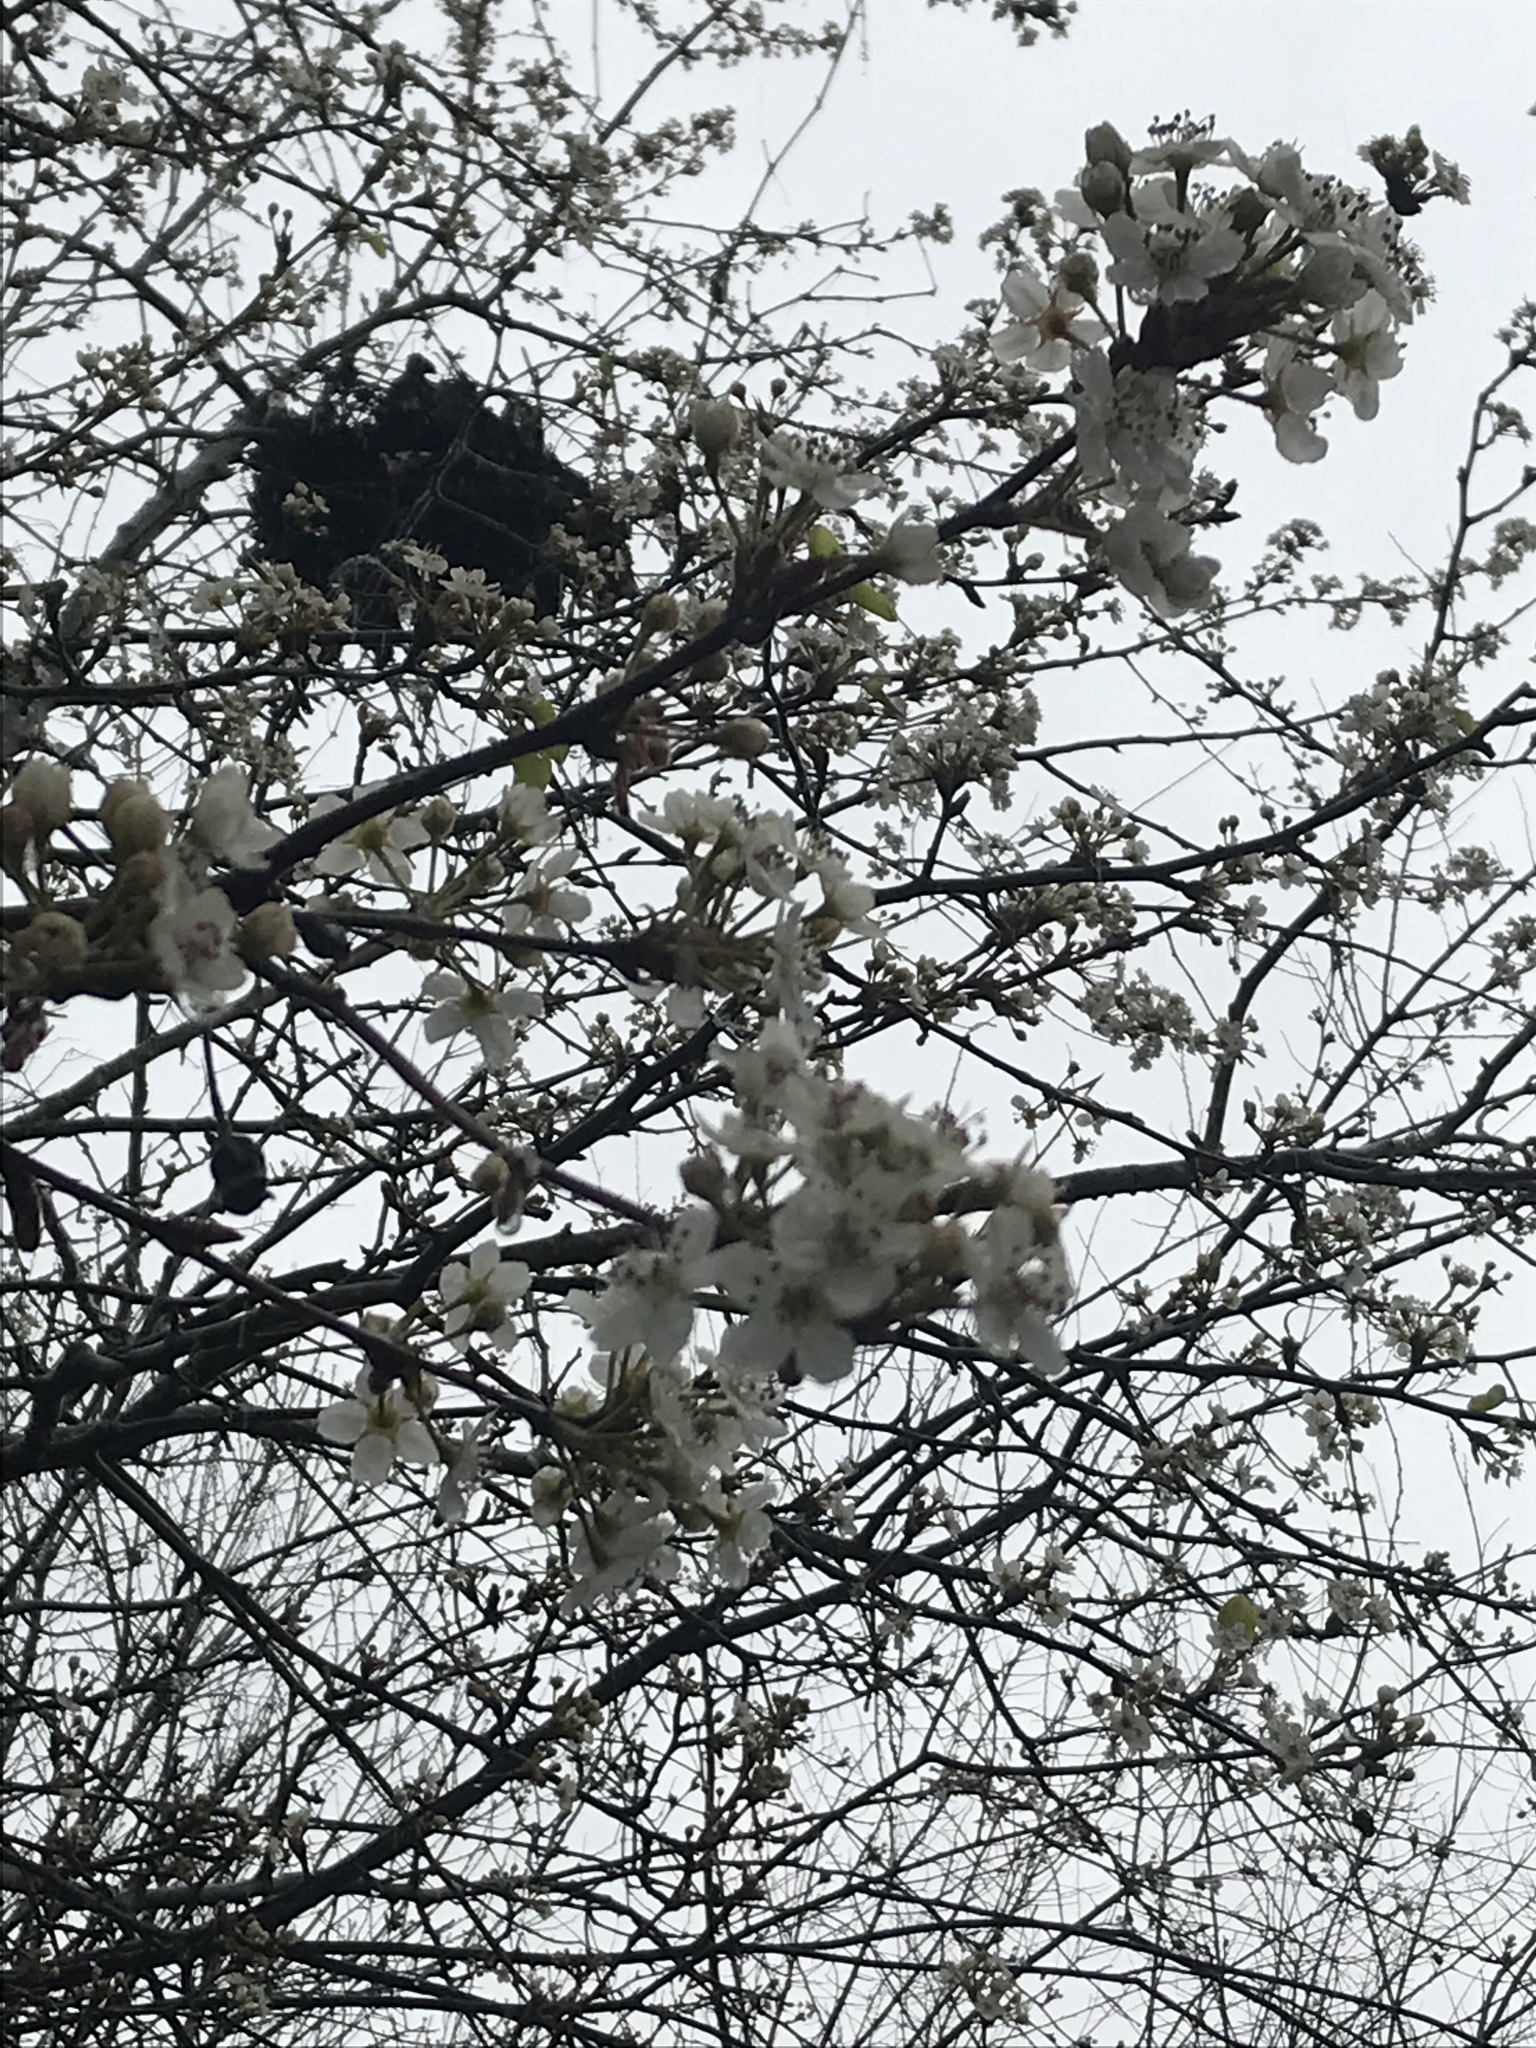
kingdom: Plantae
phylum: Tracheophyta
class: Magnoliopsida
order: Rosales
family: Rosaceae
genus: Pyrus
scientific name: Pyrus calleryana
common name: Callery pear
